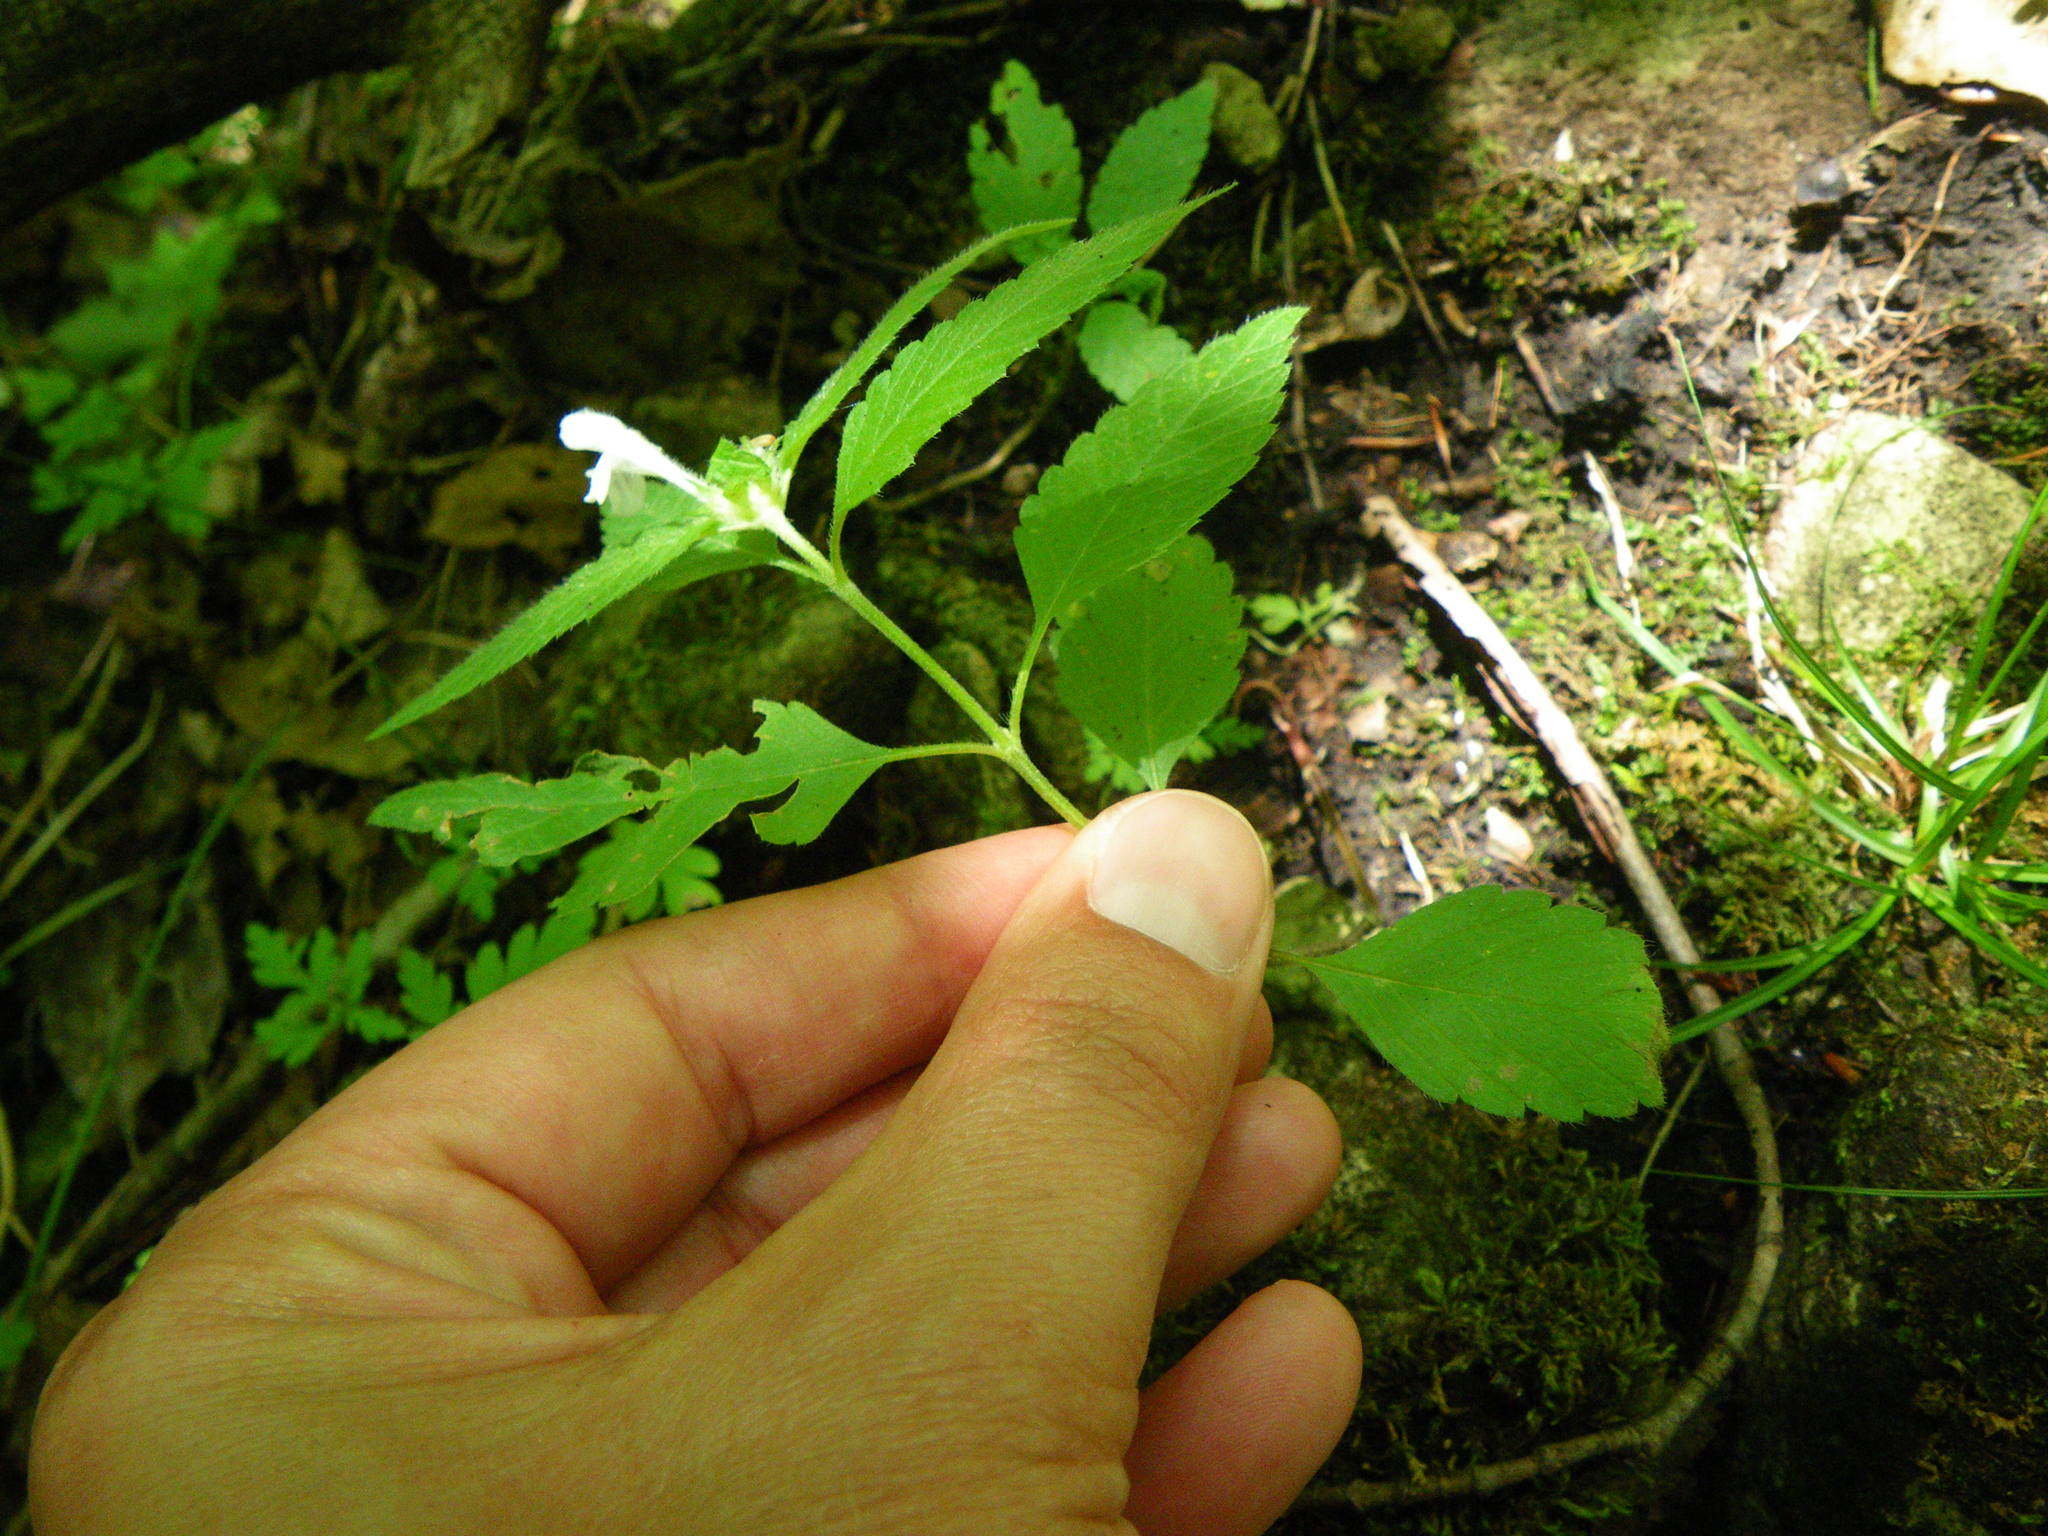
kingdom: Plantae
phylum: Tracheophyta
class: Magnoliopsida
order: Lamiales
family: Lamiaceae
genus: Galeopsis
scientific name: Galeopsis tetrahit
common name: Common hemp-nettle
